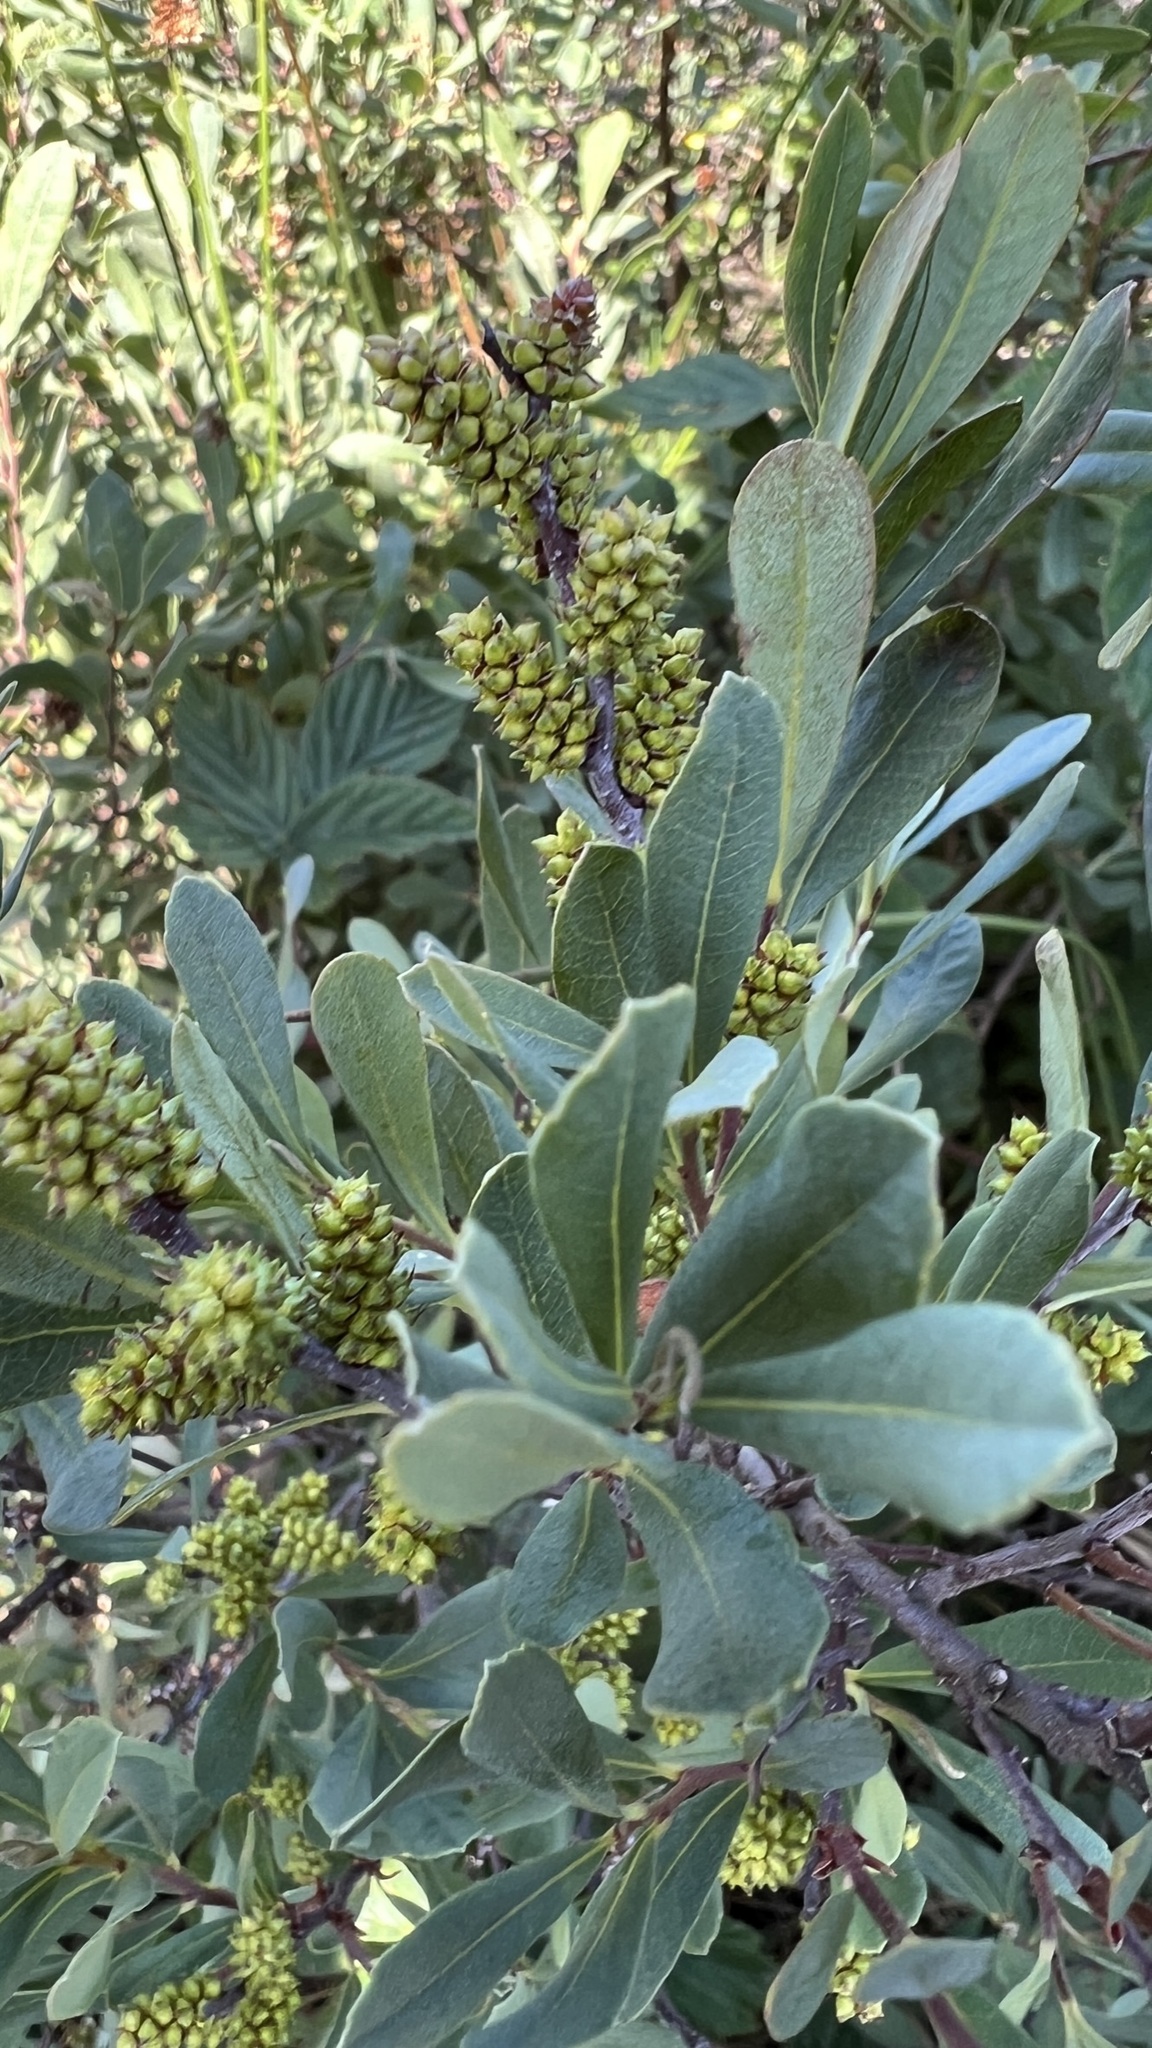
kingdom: Plantae
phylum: Tracheophyta
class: Magnoliopsida
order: Fagales
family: Myricaceae
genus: Myrica
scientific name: Myrica gale
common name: Sweet gale
